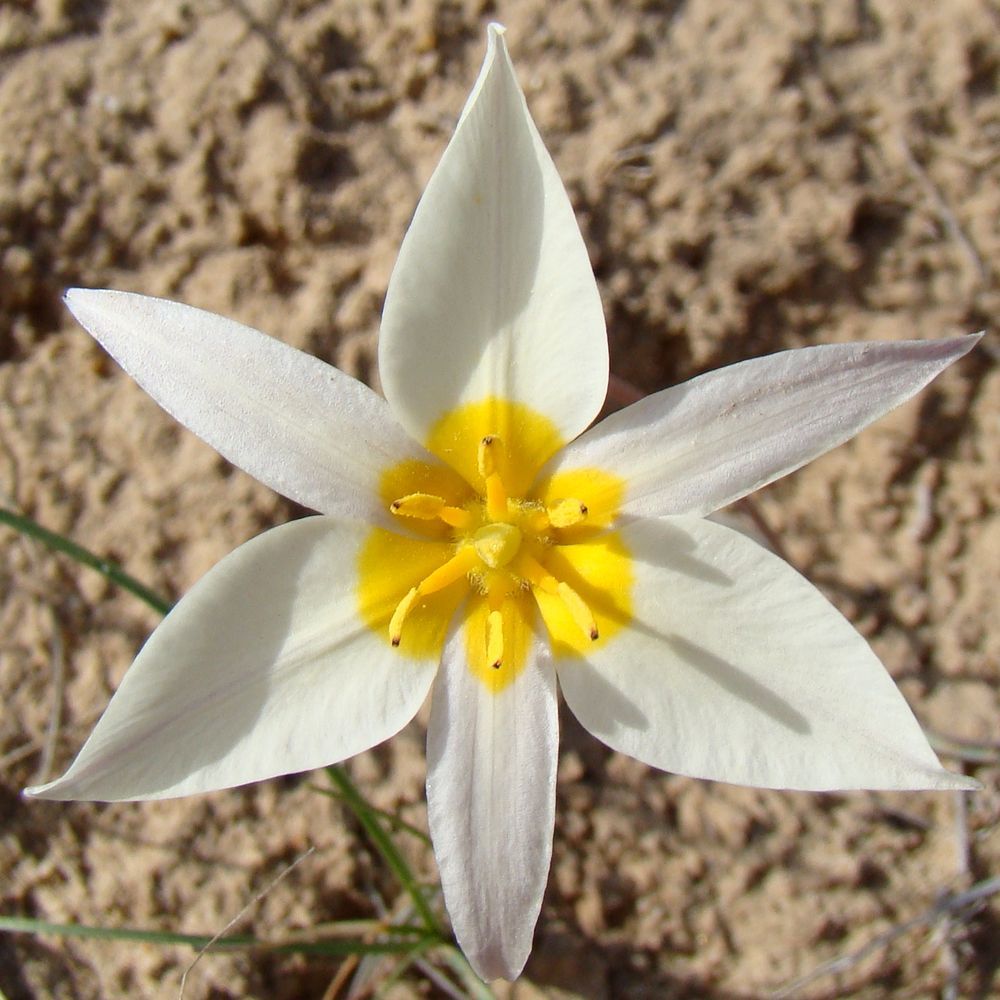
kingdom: Plantae
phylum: Tracheophyta
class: Liliopsida
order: Liliales
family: Liliaceae
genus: Tulipa
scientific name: Tulipa biflora
